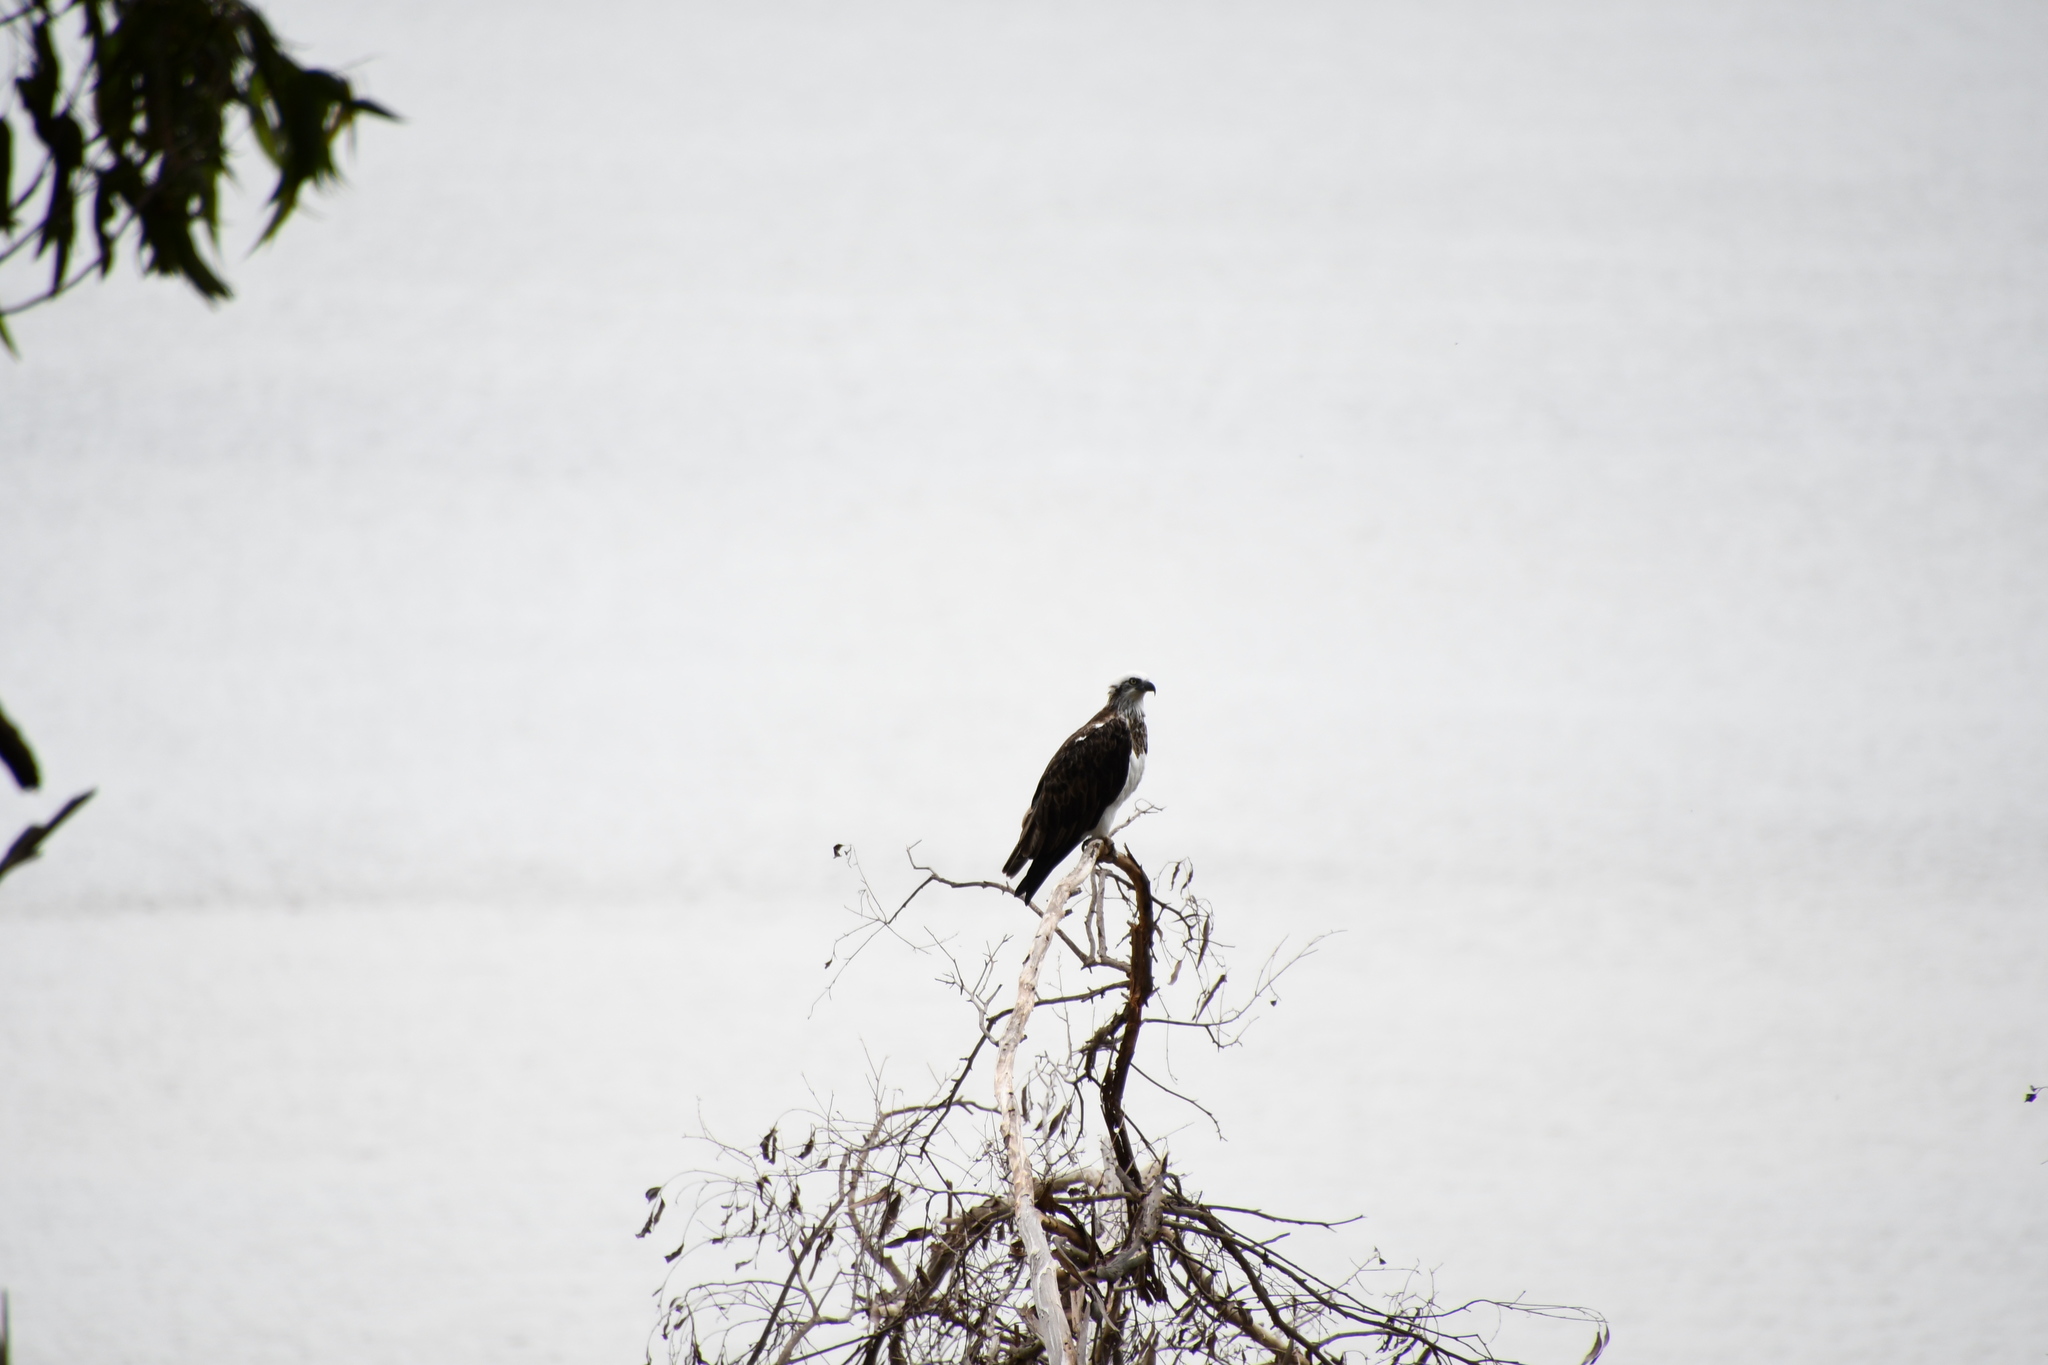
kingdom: Animalia
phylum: Chordata
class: Aves
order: Accipitriformes
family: Pandionidae
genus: Pandion
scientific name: Pandion haliaetus
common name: Osprey
